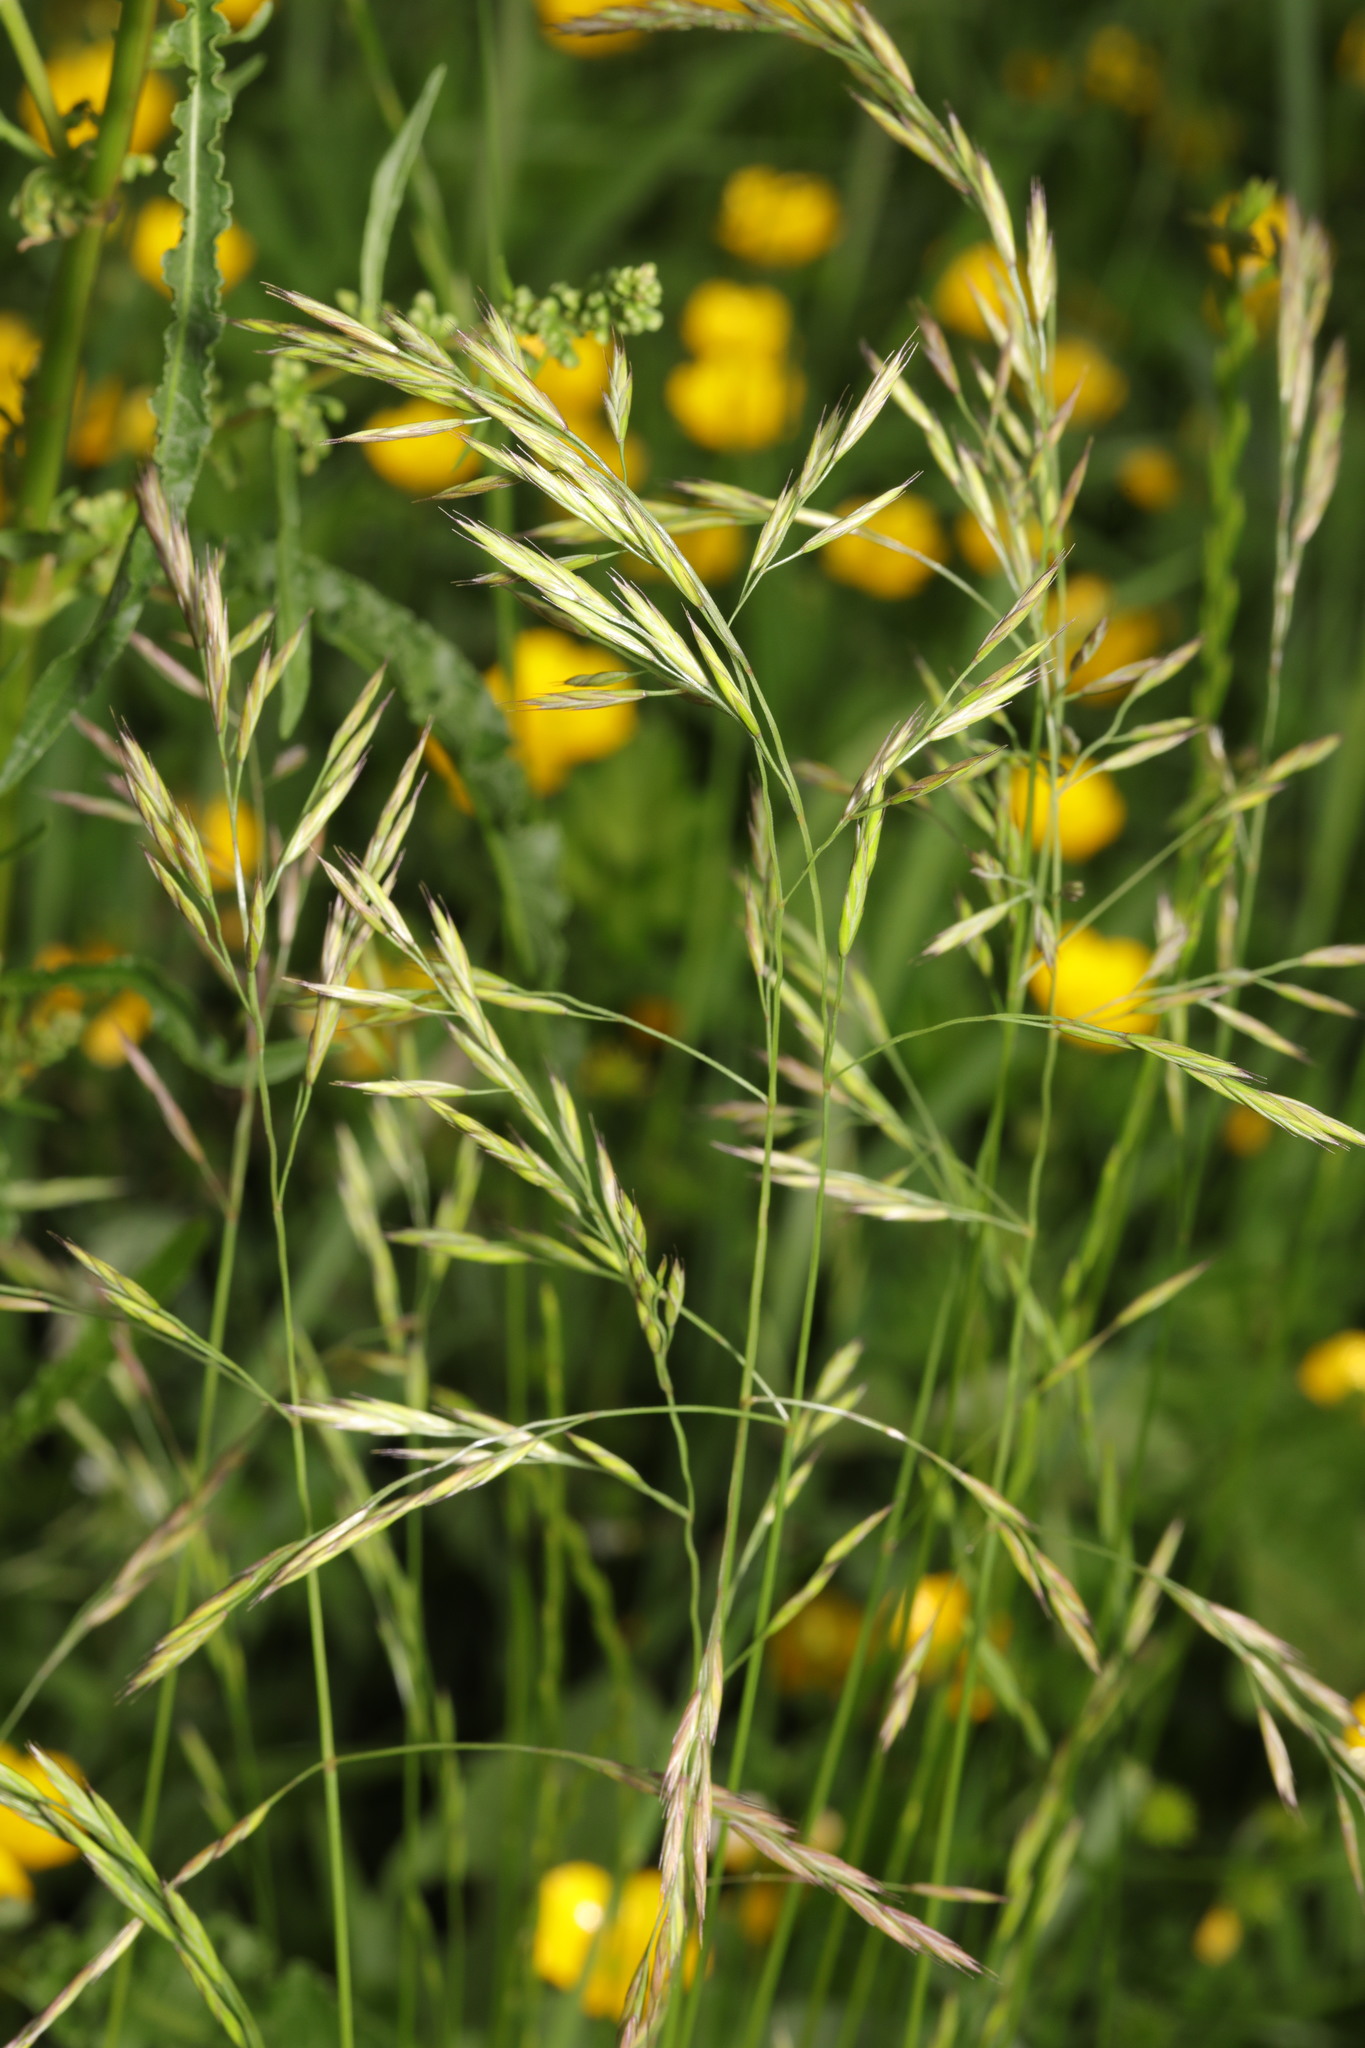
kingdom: Plantae
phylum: Tracheophyta
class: Liliopsida
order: Poales
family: Poaceae
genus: Festuca
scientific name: Festuca rubra
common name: Red fescue
